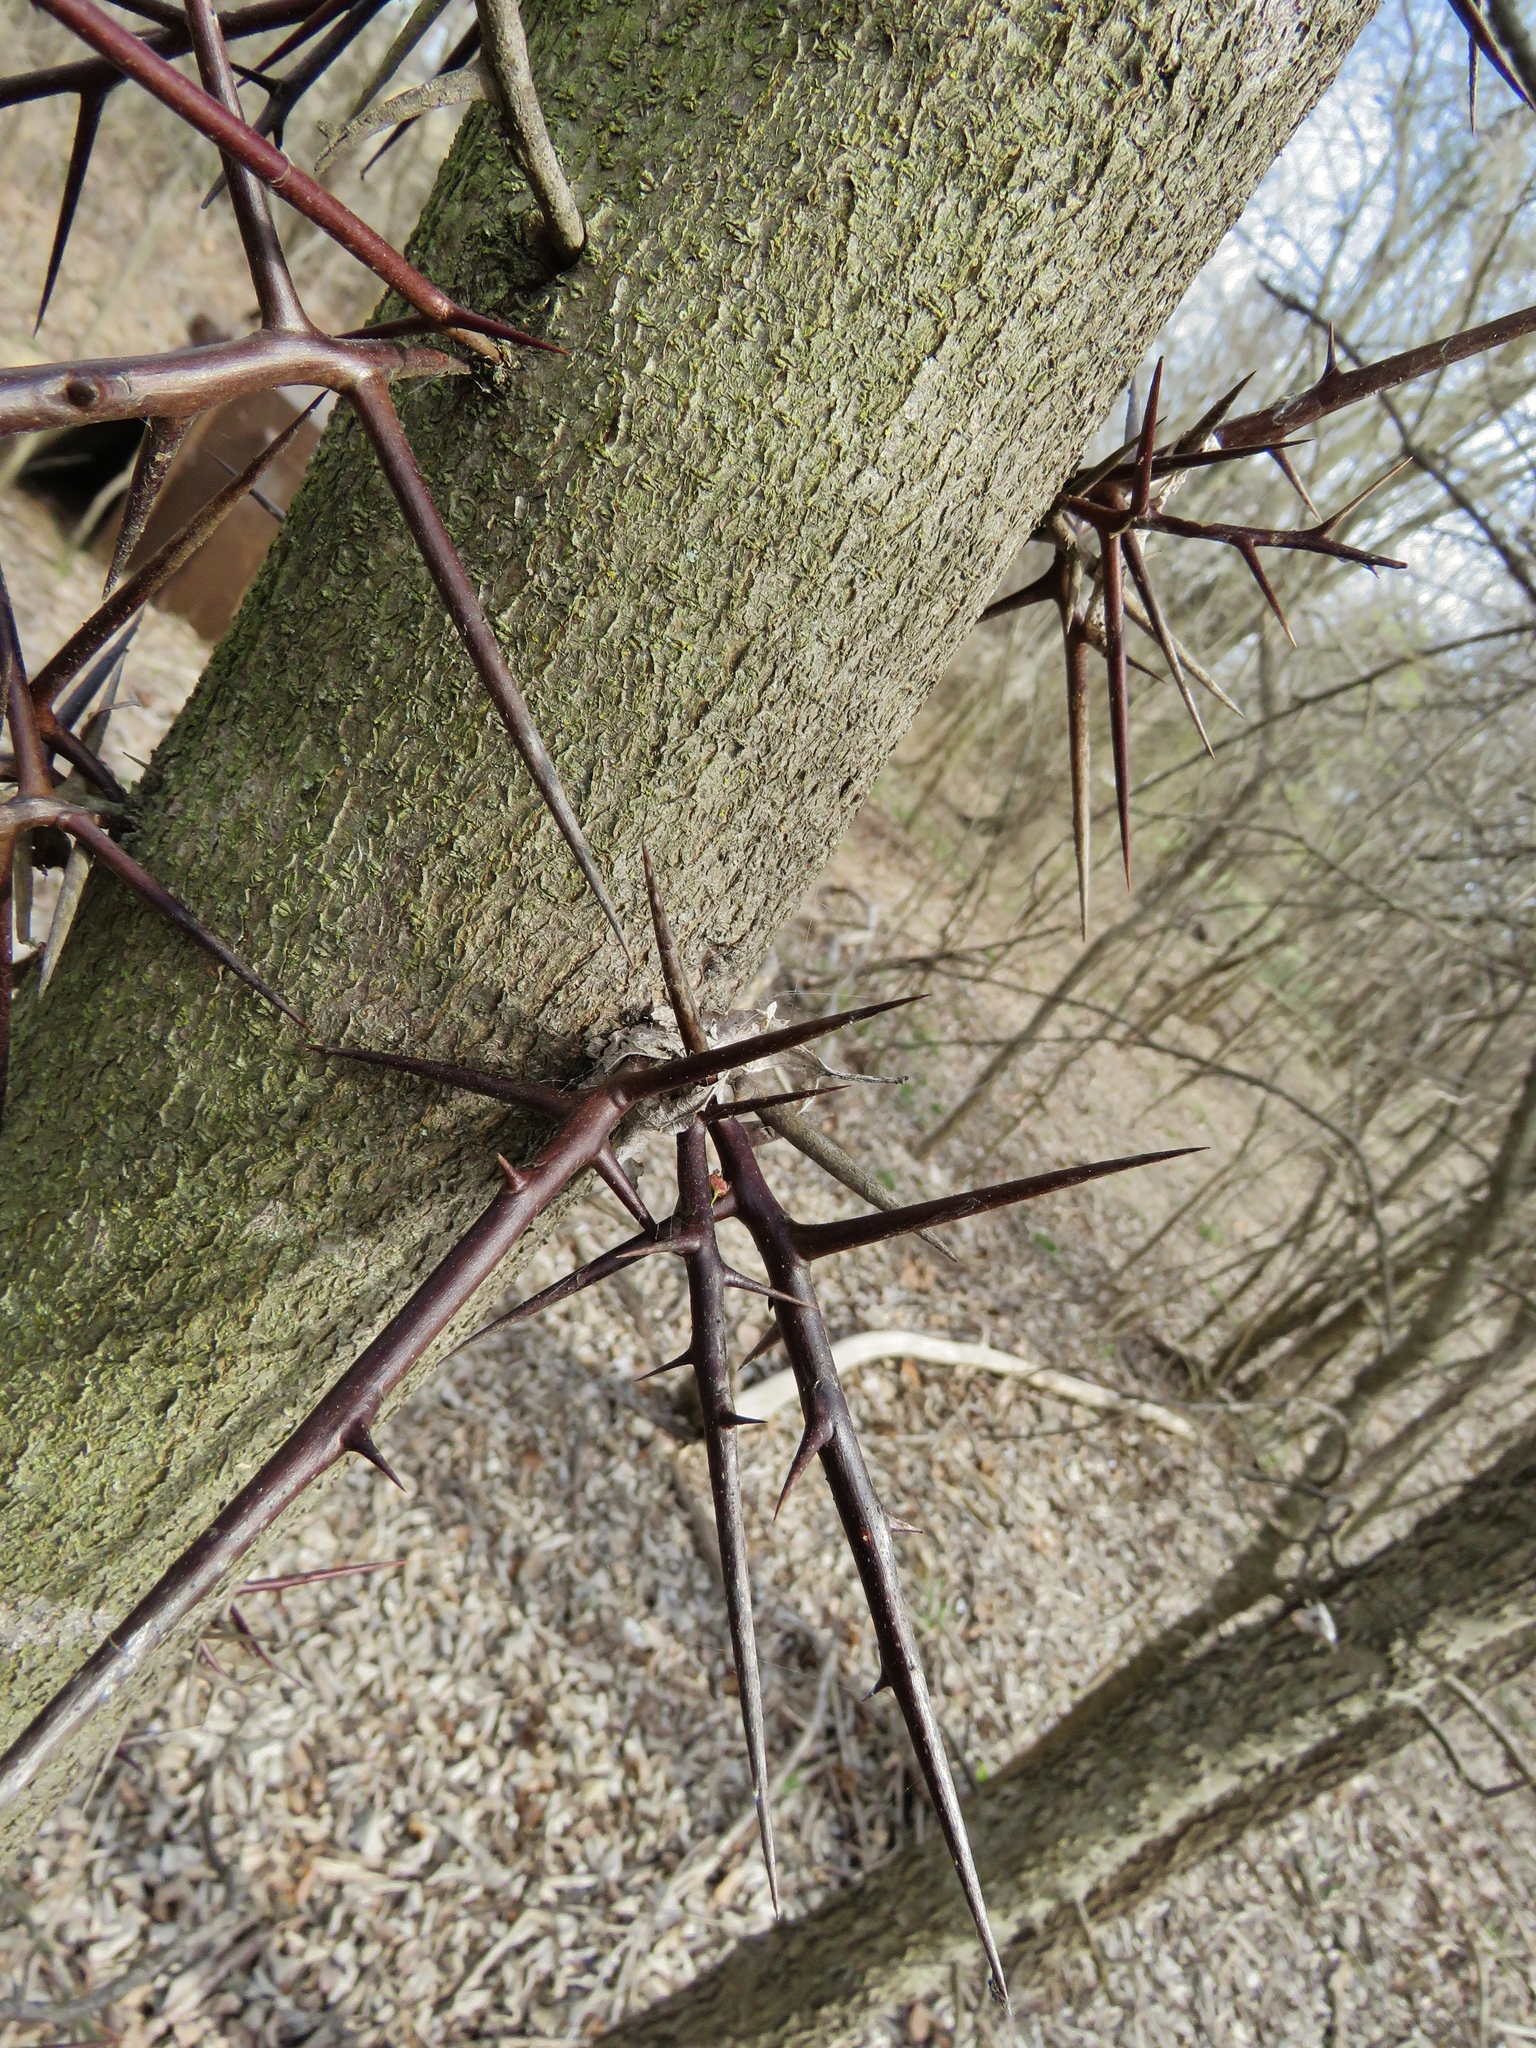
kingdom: Plantae
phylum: Tracheophyta
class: Magnoliopsida
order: Fabales
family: Fabaceae
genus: Gleditsia
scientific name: Gleditsia triacanthos
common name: Common honeylocust
